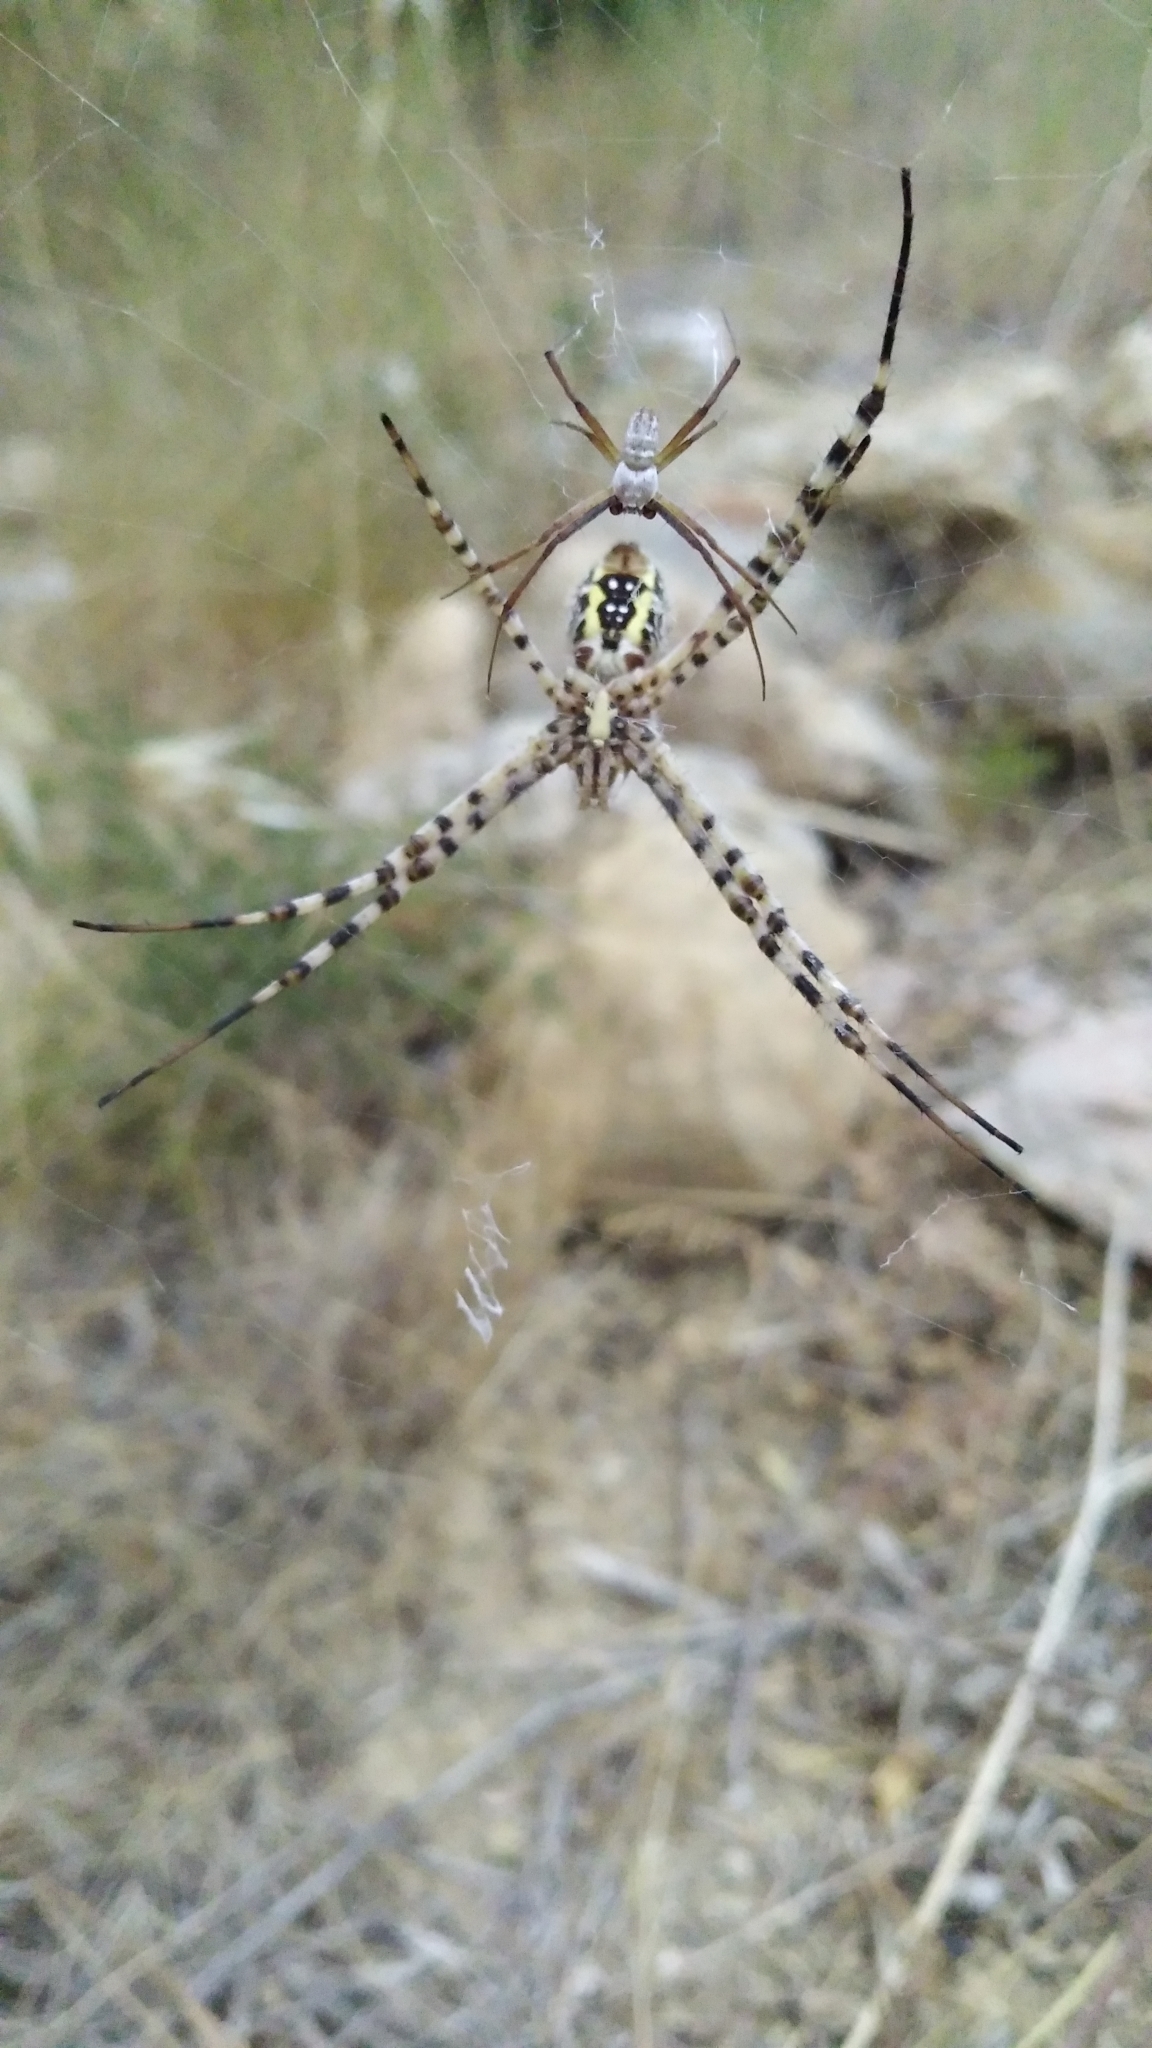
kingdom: Animalia
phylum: Arthropoda
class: Arachnida
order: Araneae
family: Araneidae
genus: Argiope
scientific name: Argiope trifasciata
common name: Banded garden spider
